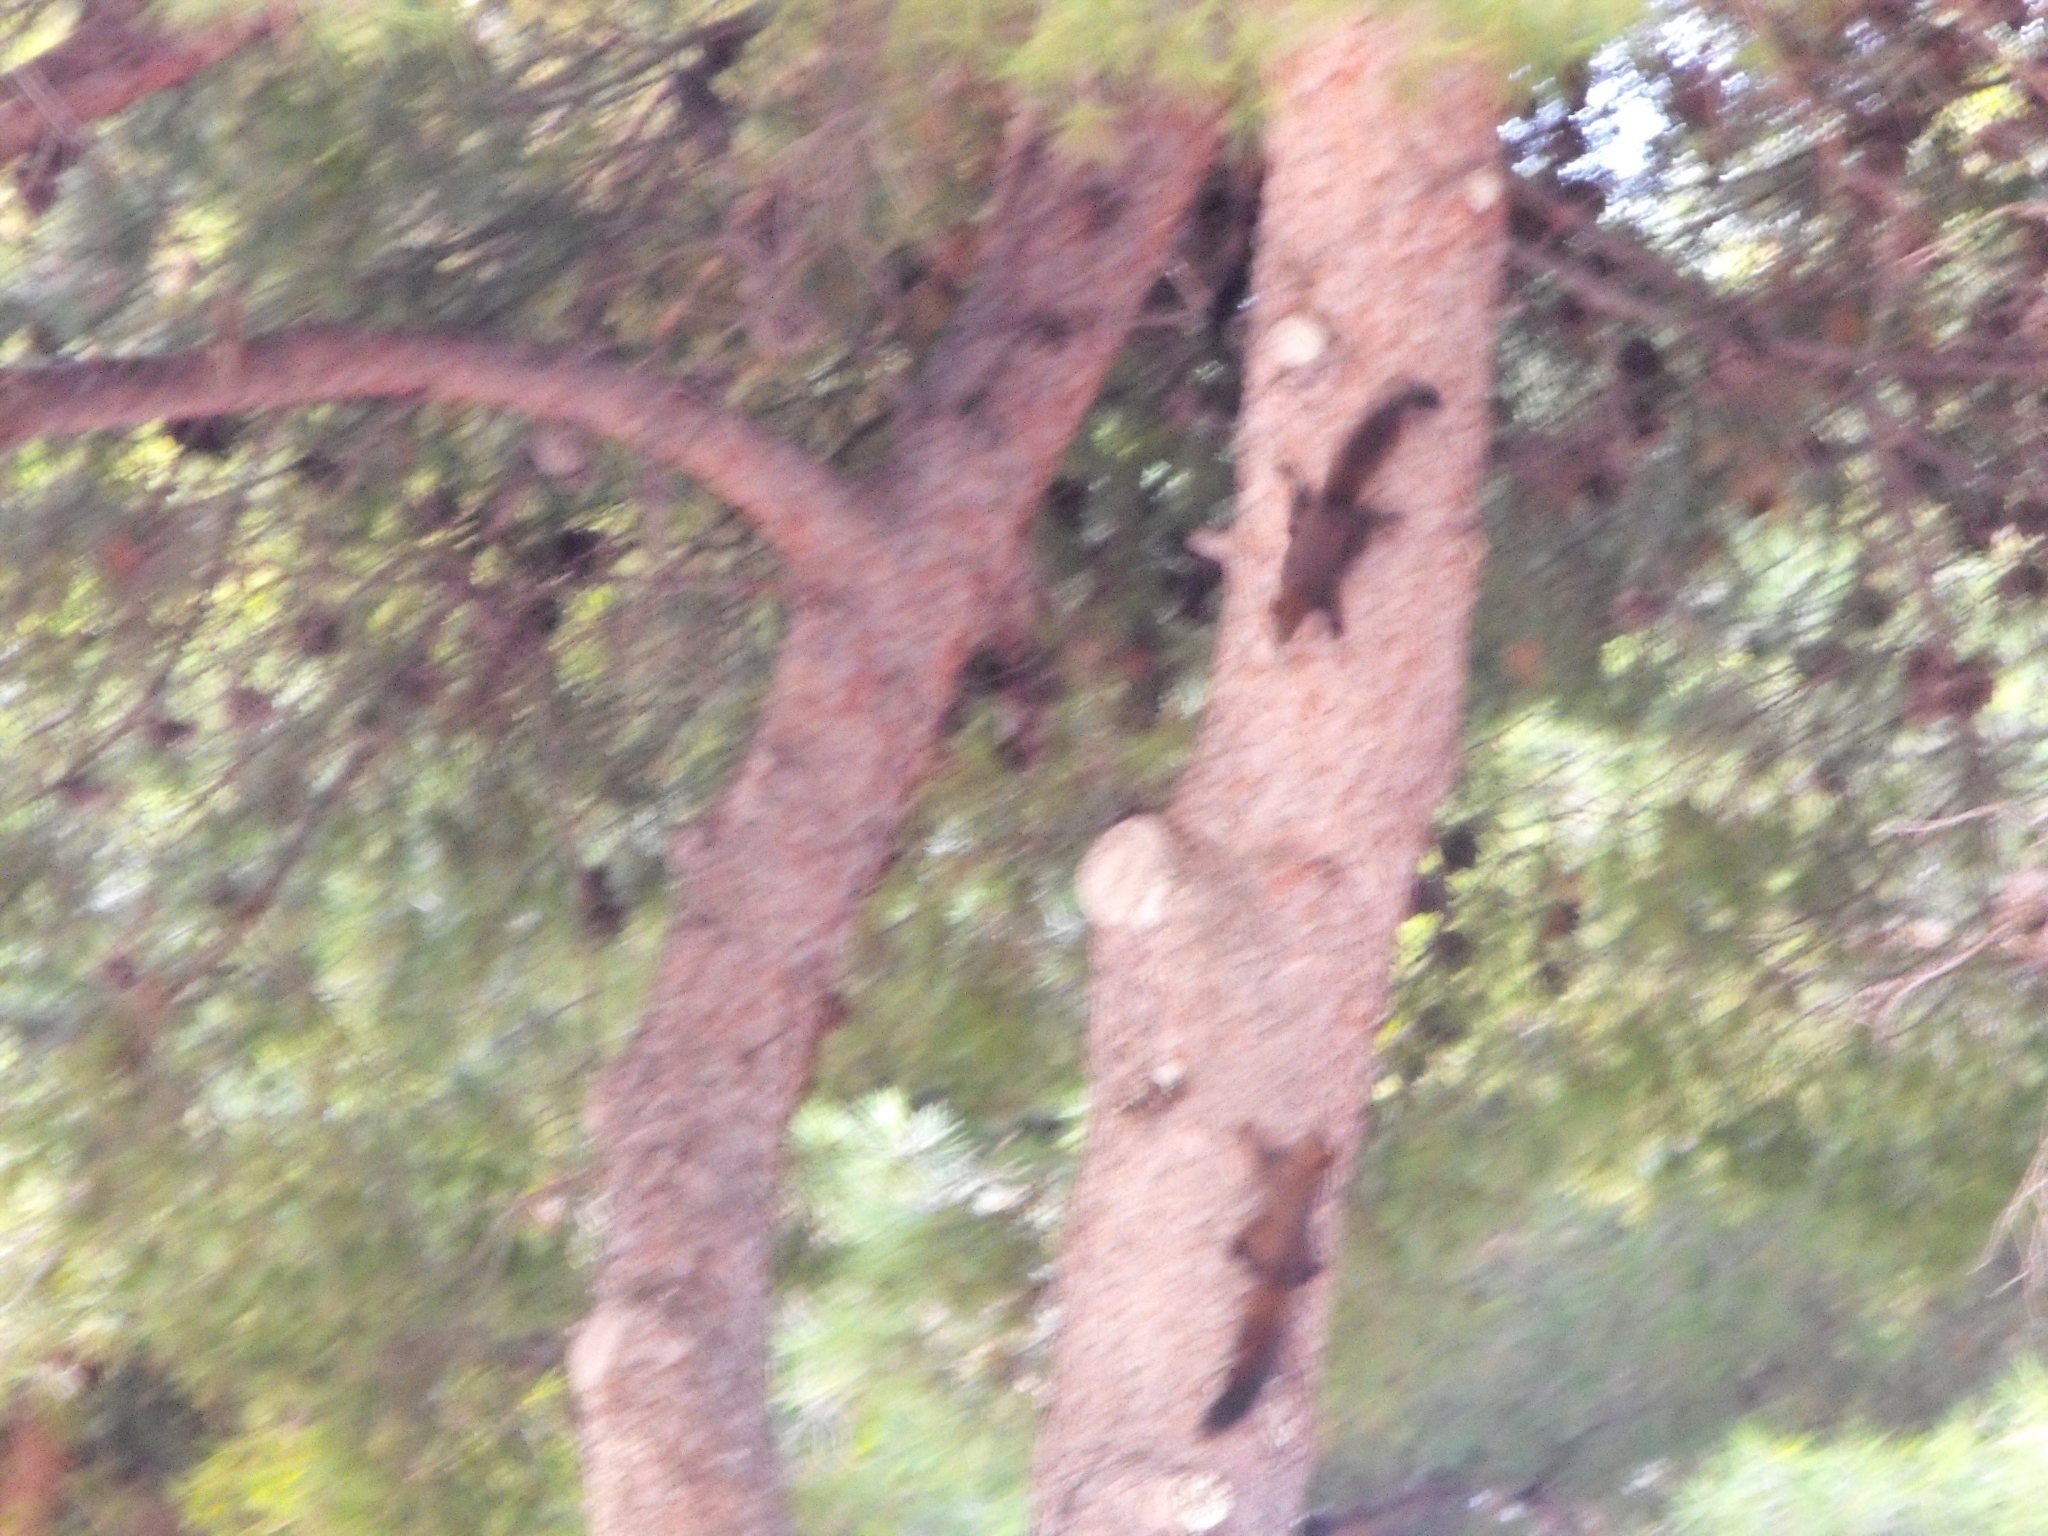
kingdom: Animalia
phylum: Chordata
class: Mammalia
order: Rodentia
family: Sciuridae
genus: Sciurus
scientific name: Sciurus vulgaris
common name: Eurasian red squirrel
